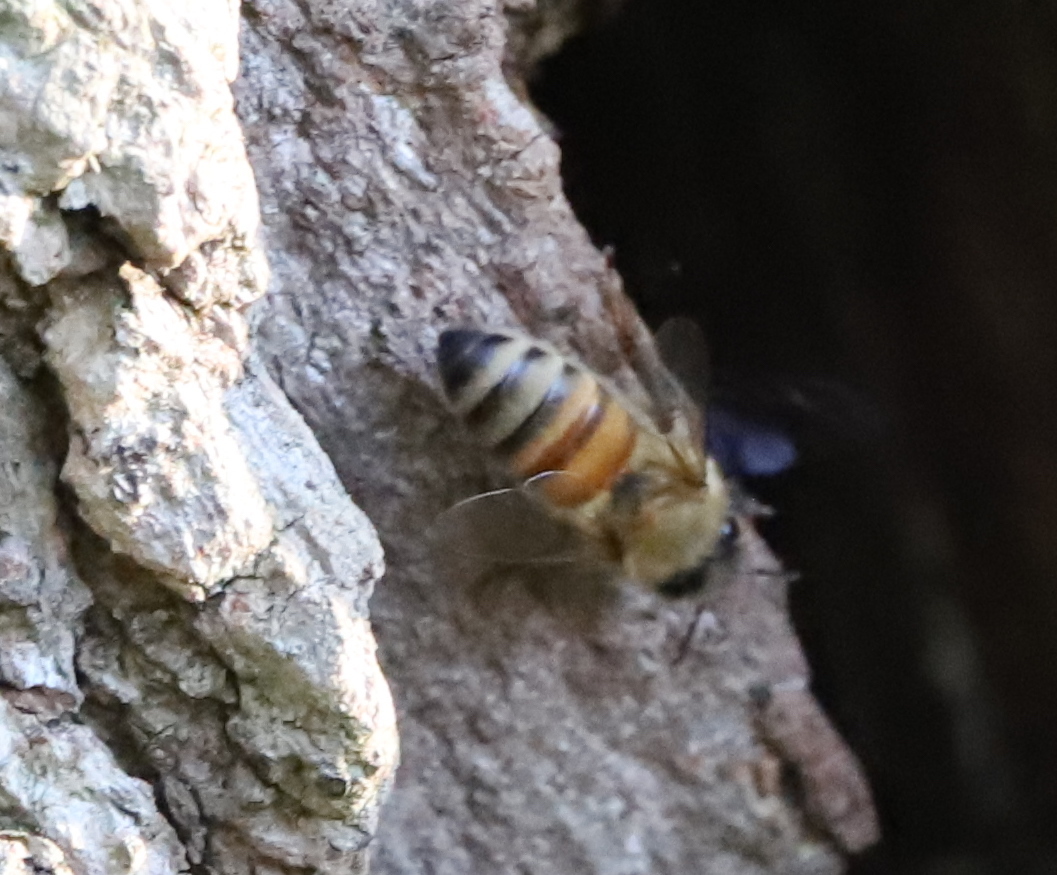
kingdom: Animalia
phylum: Arthropoda
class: Insecta
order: Hymenoptera
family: Apidae
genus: Apis
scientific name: Apis mellifera
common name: Honey bee
